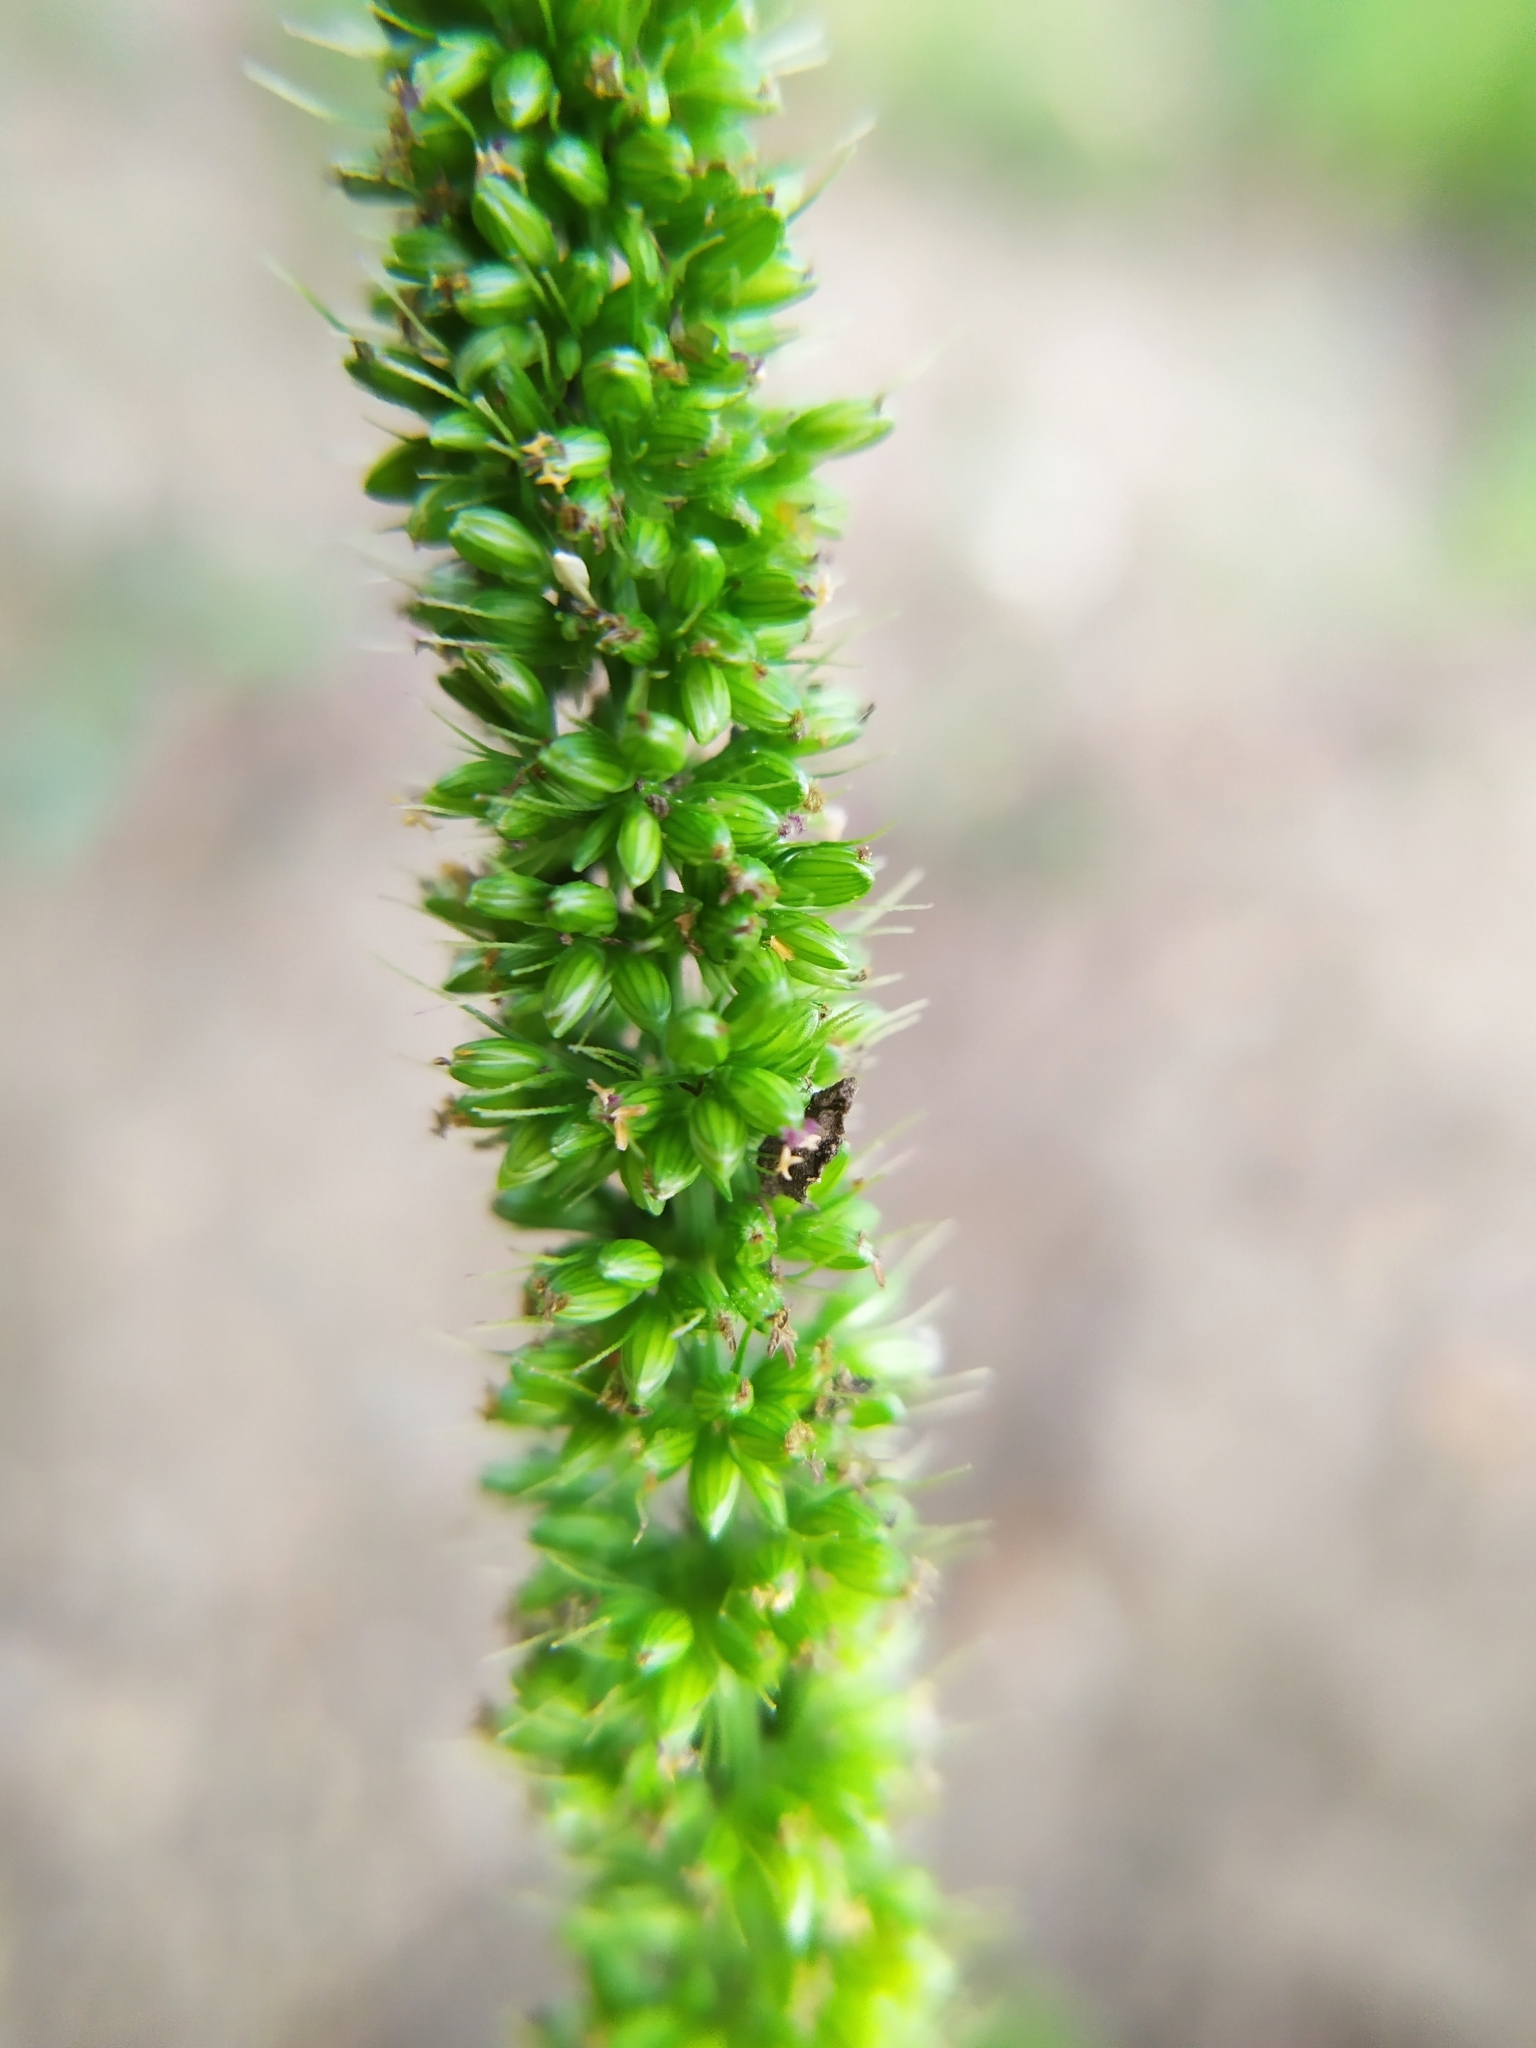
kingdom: Plantae
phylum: Tracheophyta
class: Liliopsida
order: Poales
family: Poaceae
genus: Setaria
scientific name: Setaria verticillata
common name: Hooked bristlegrass
